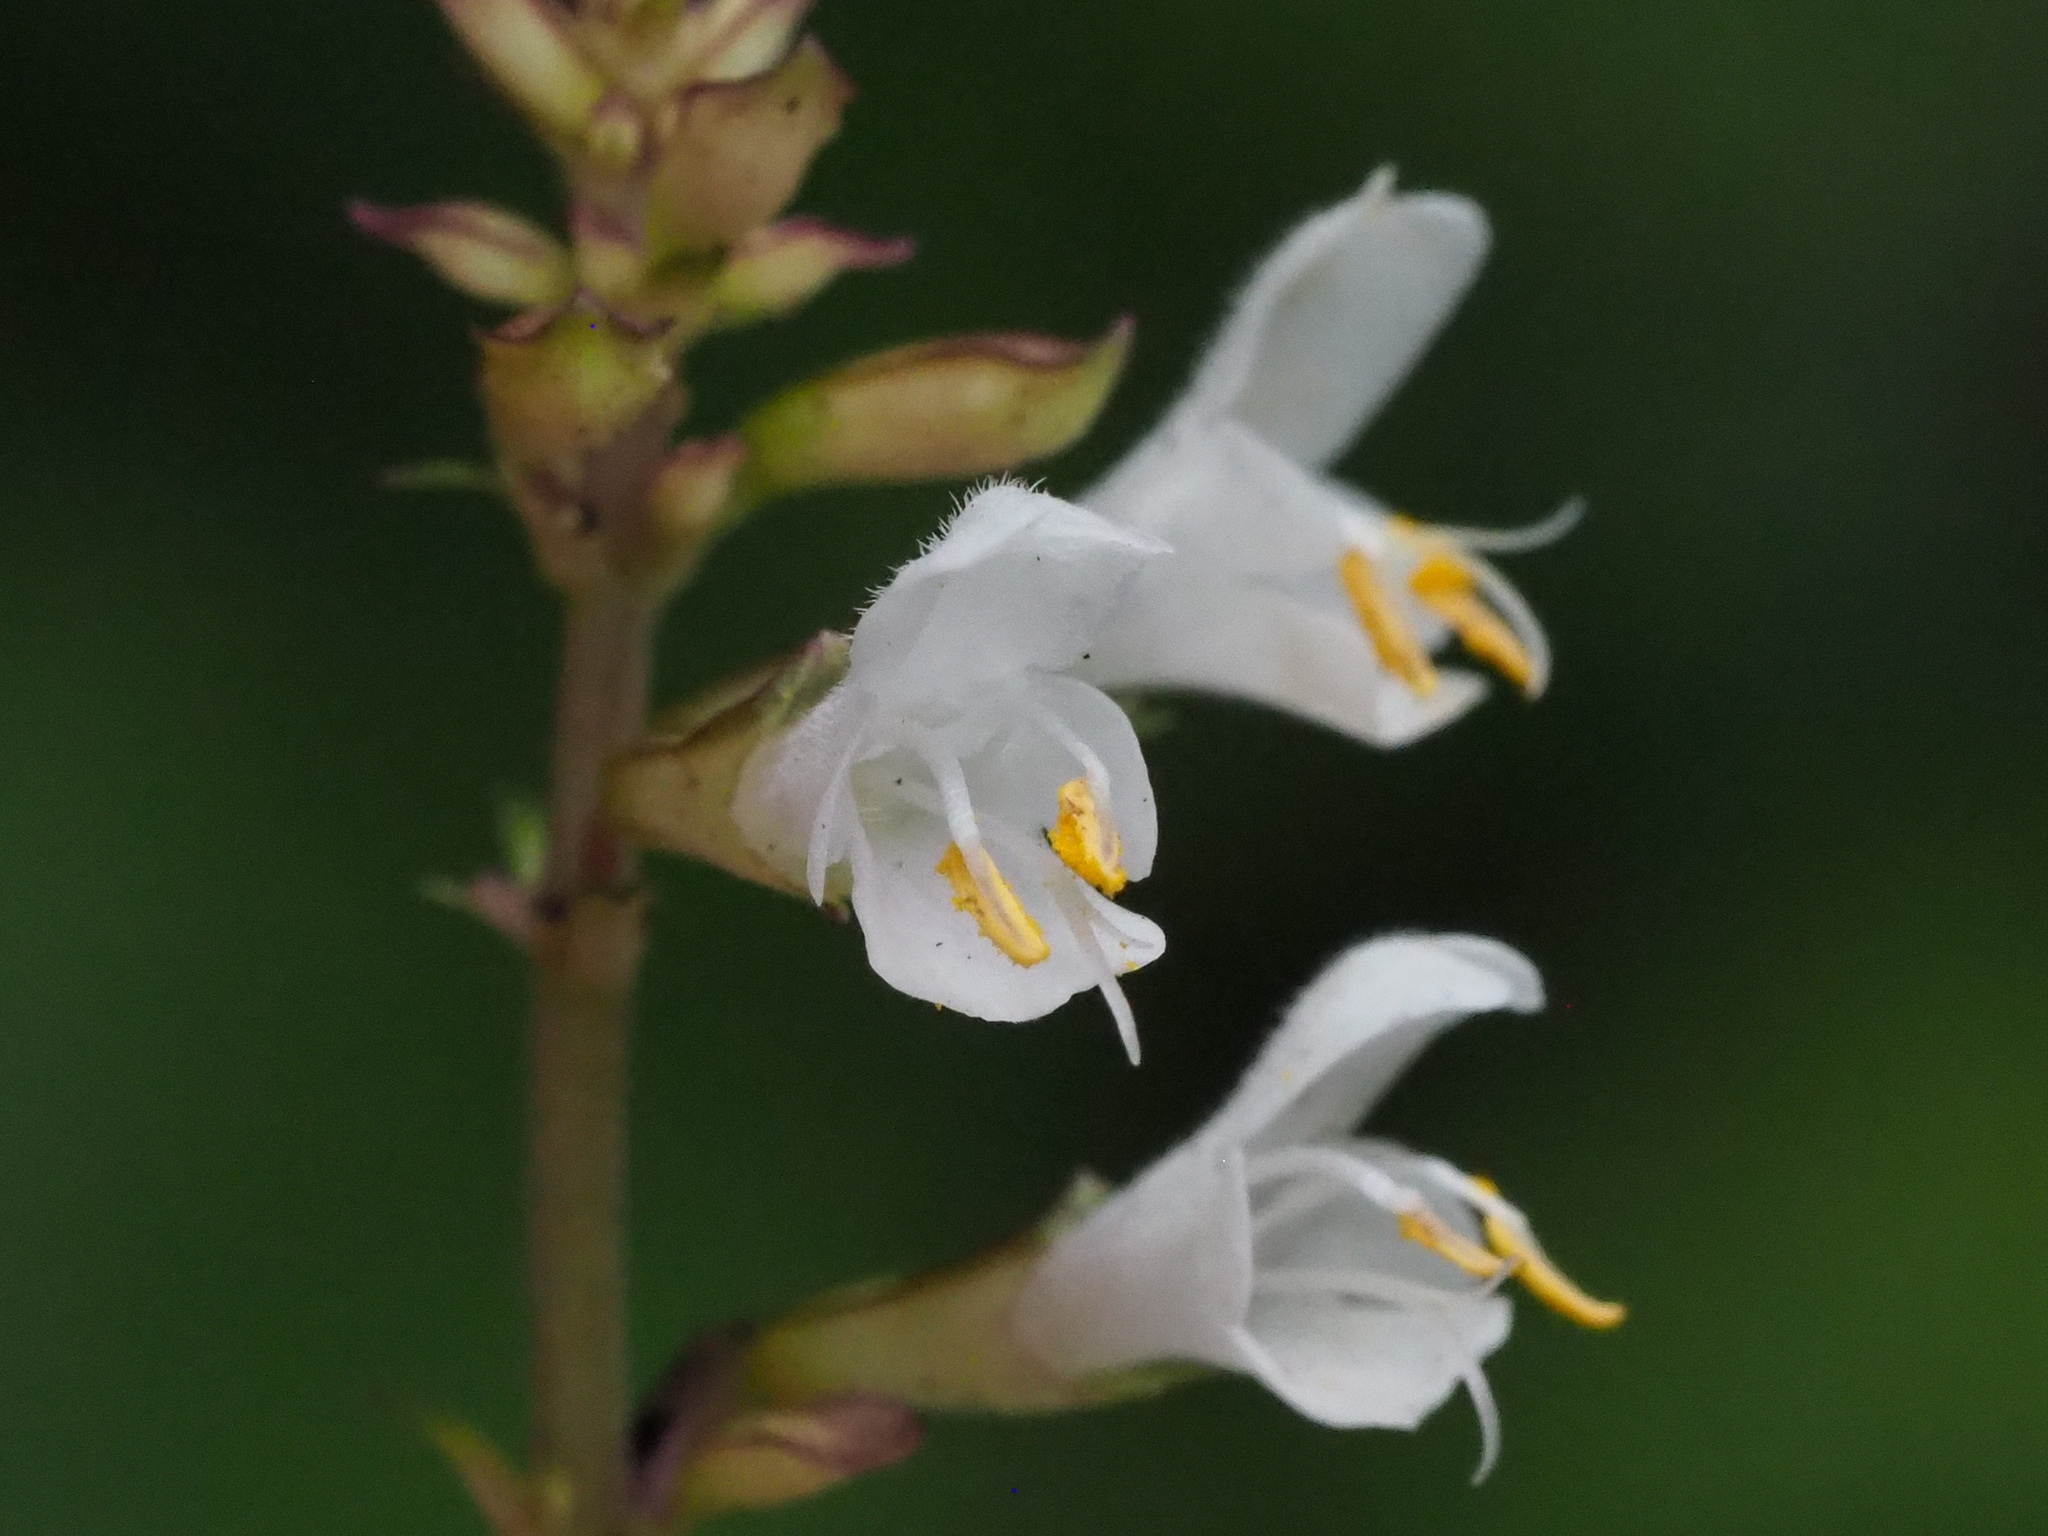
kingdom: Plantae
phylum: Tracheophyta
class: Magnoliopsida
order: Lamiales
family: Lamiaceae
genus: Salvia
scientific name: Salvia hayatae
